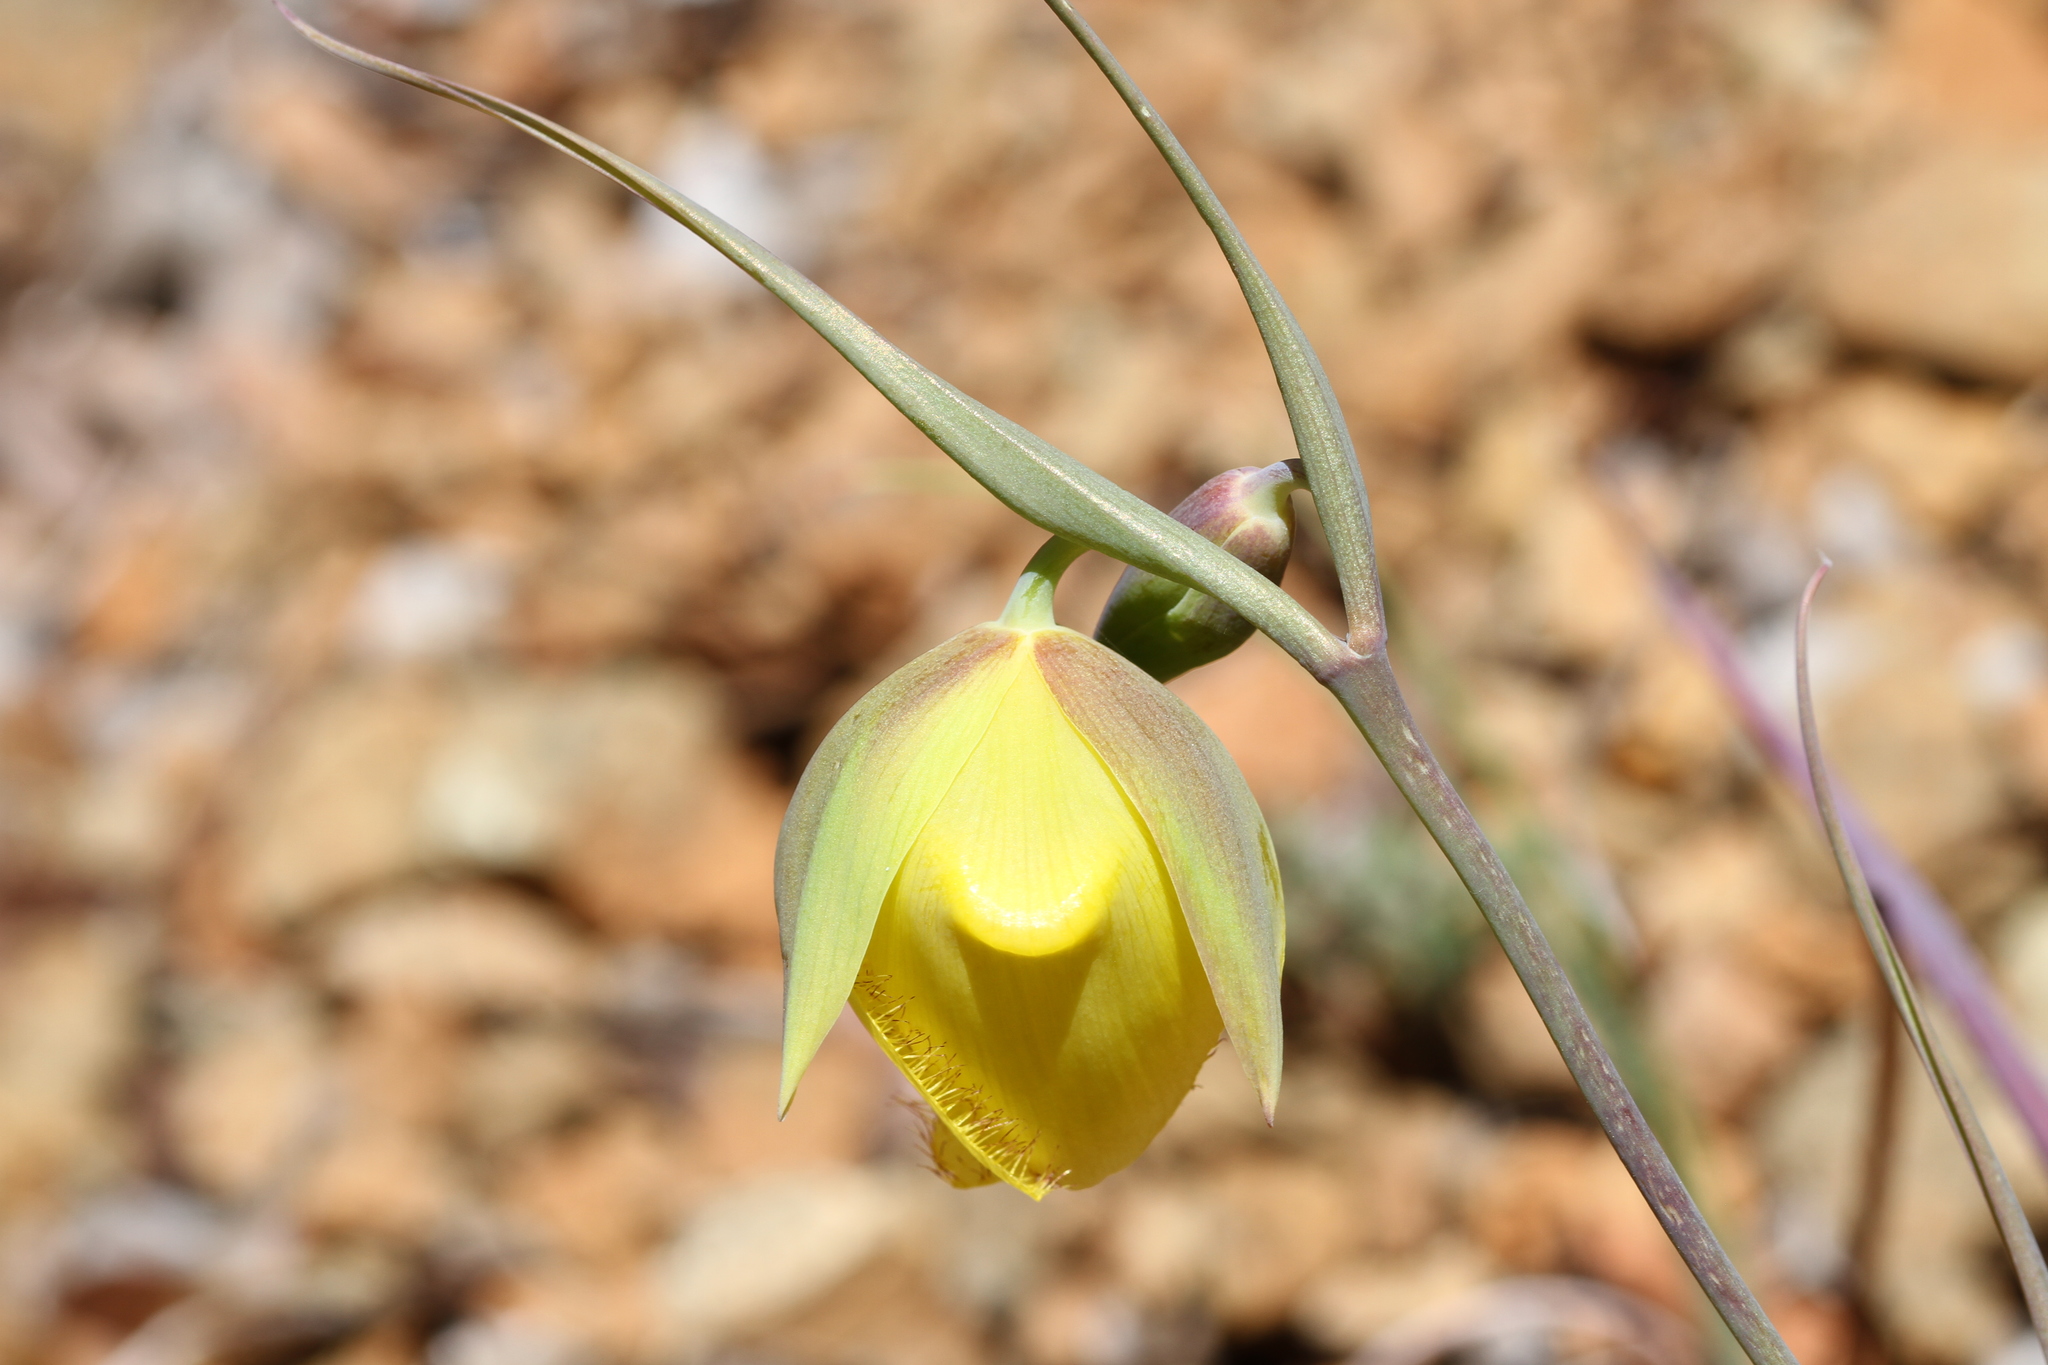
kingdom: Plantae
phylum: Tracheophyta
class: Liliopsida
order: Liliales
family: Liliaceae
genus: Calochortus
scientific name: Calochortus raichei
